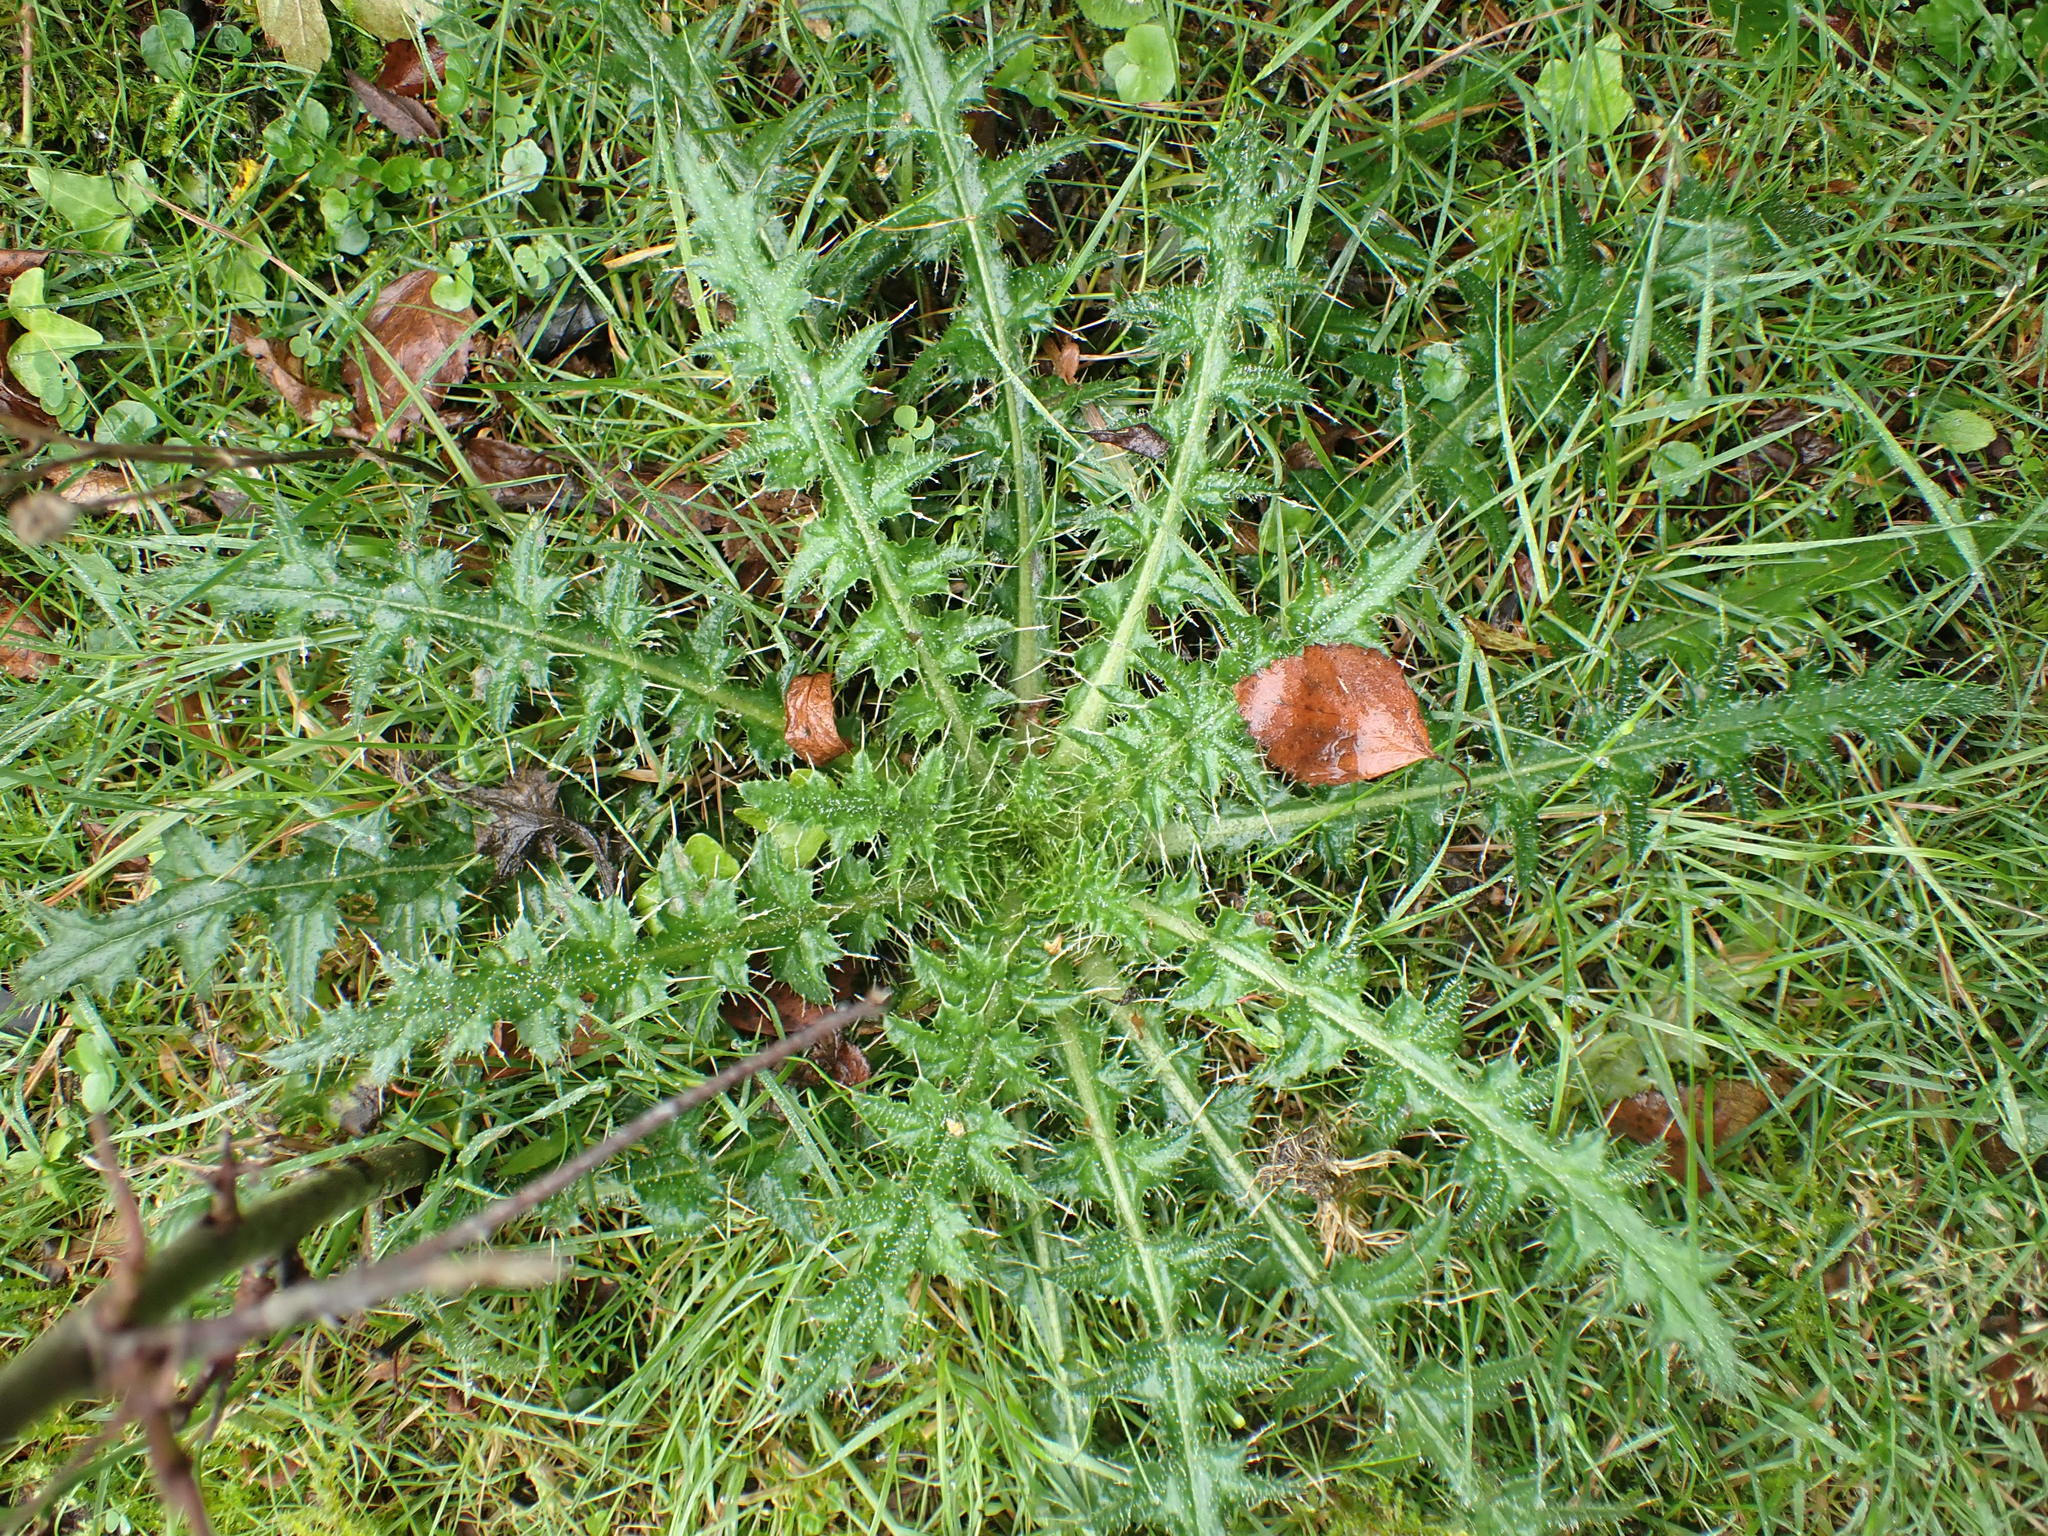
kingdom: Plantae
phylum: Tracheophyta
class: Magnoliopsida
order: Asterales
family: Asteraceae
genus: Cirsium
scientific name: Cirsium palustre
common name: Marsh thistle
